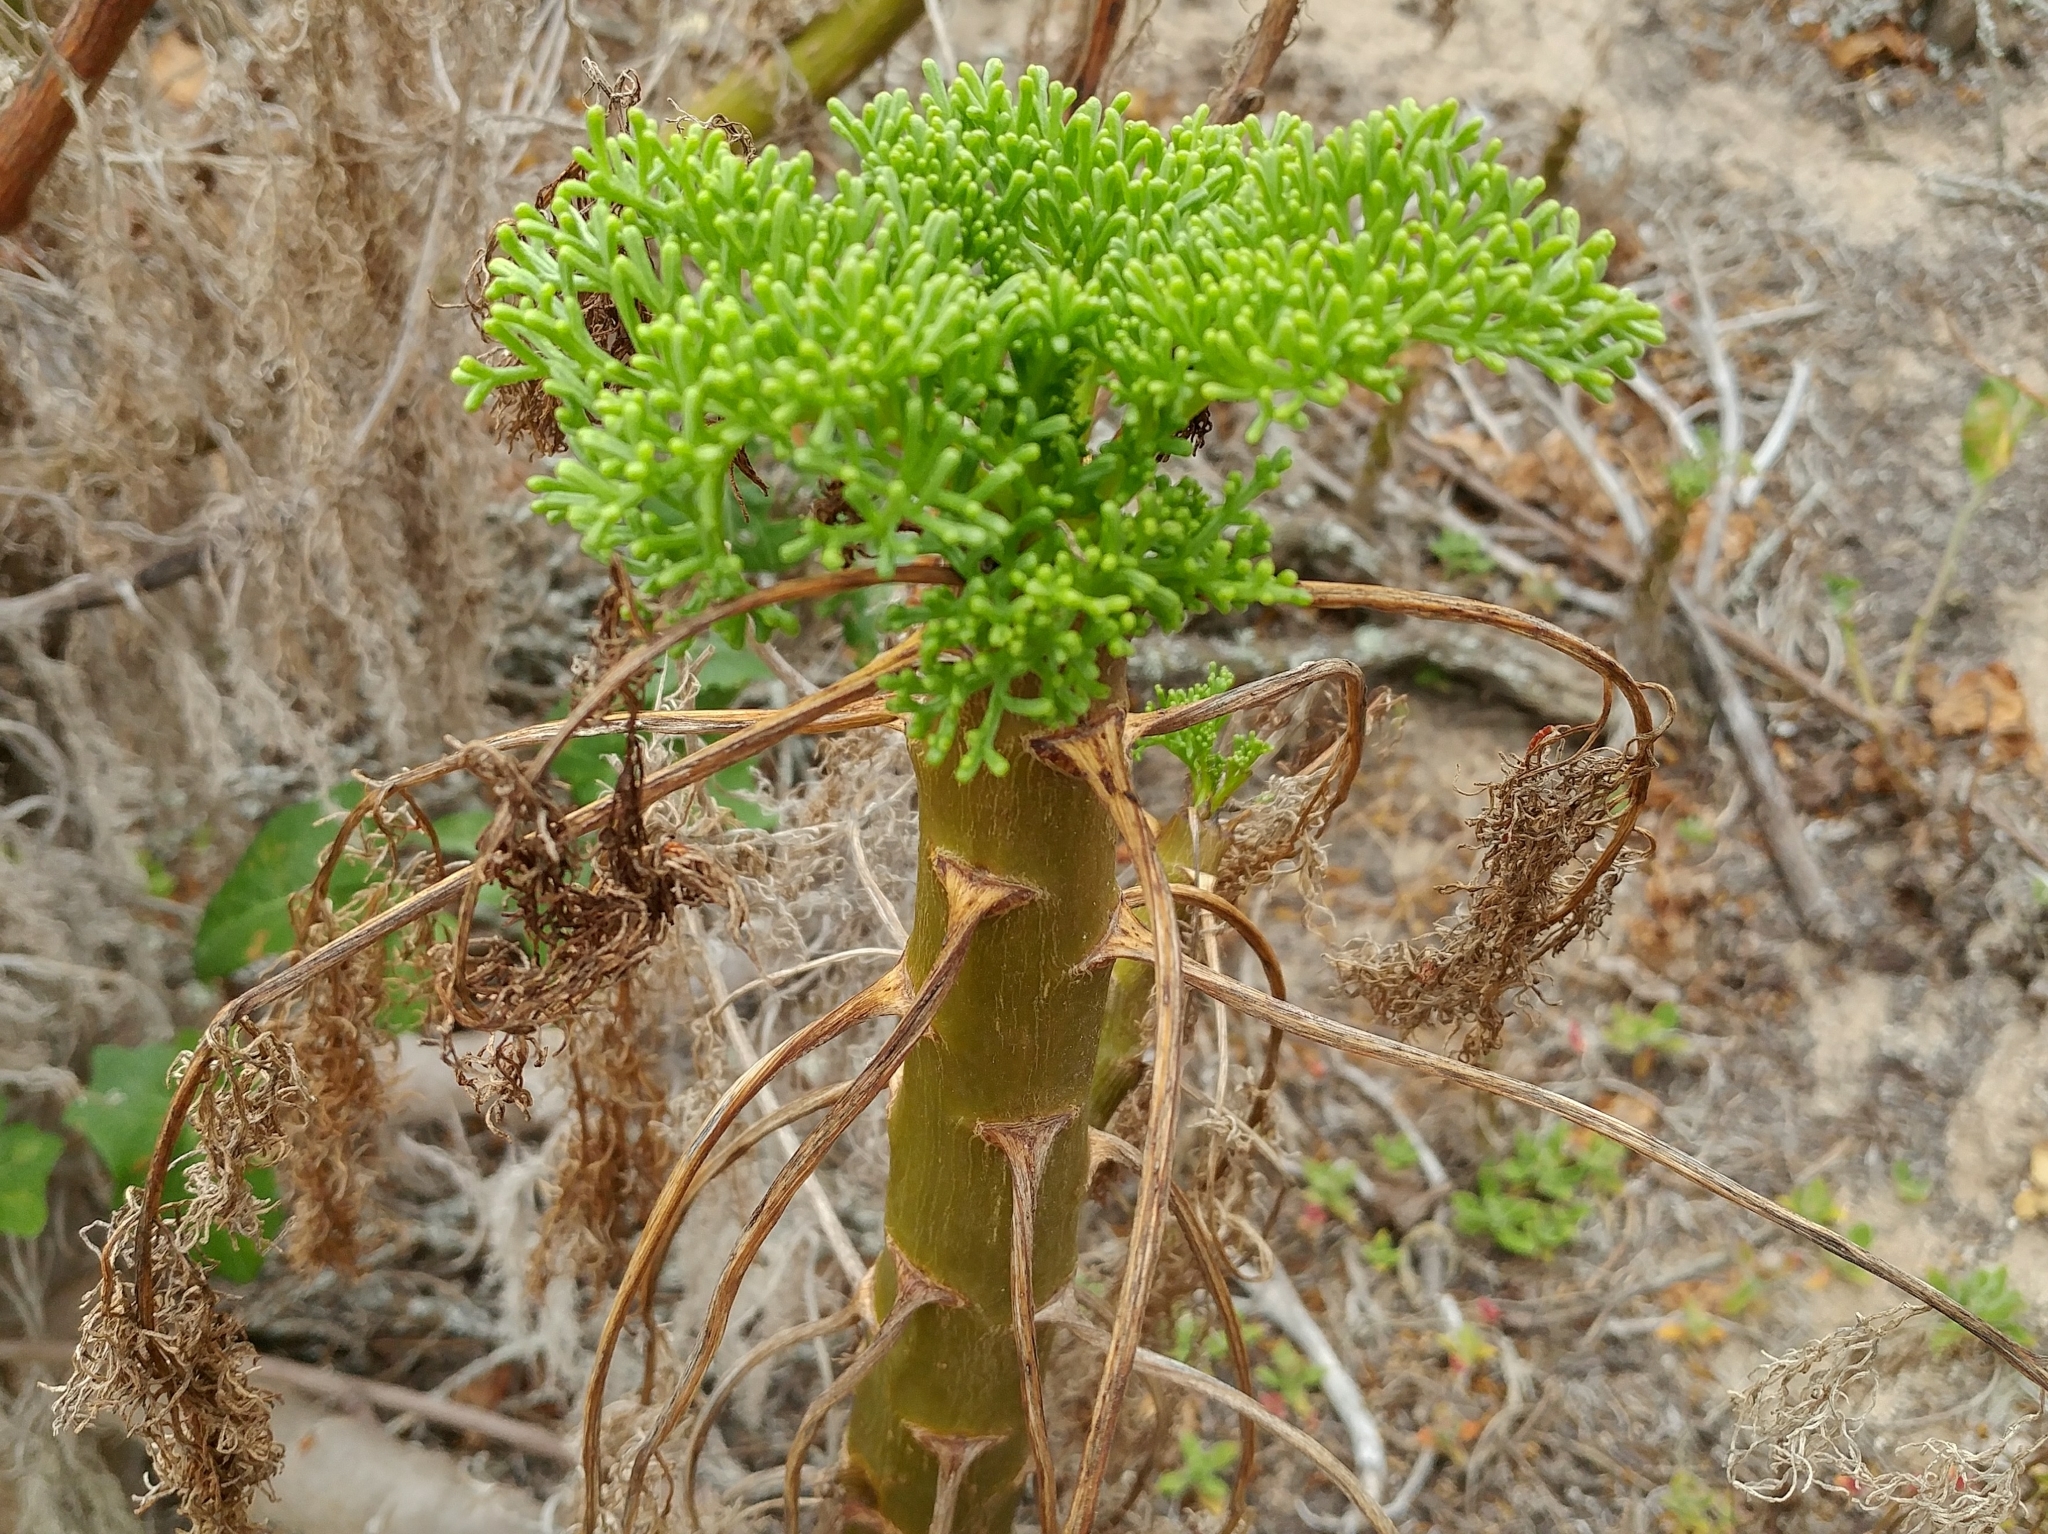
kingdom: Plantae
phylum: Tracheophyta
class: Magnoliopsida
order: Asterales
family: Asteraceae
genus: Coreopsis
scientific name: Coreopsis gigantea
